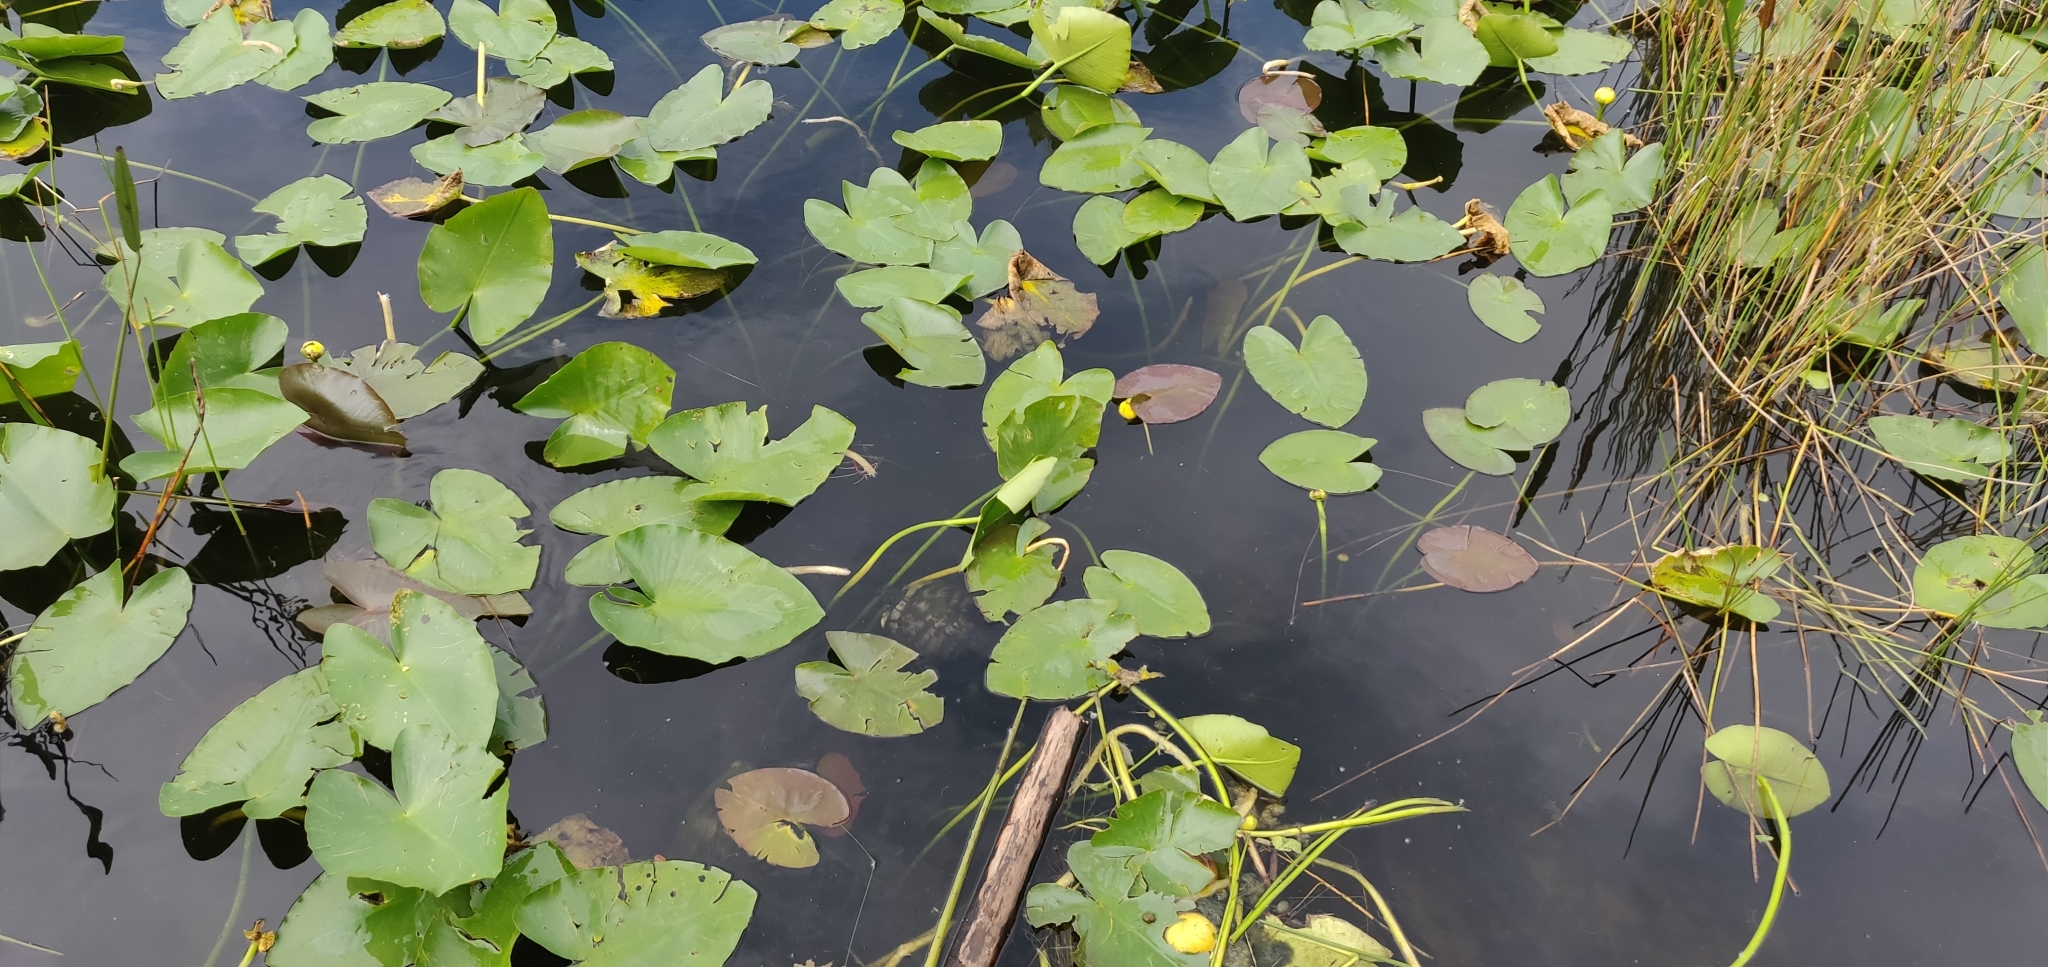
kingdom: Animalia
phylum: Chordata
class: Testudines
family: Emydidae
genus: Trachemys
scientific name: Trachemys scripta
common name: Slider
